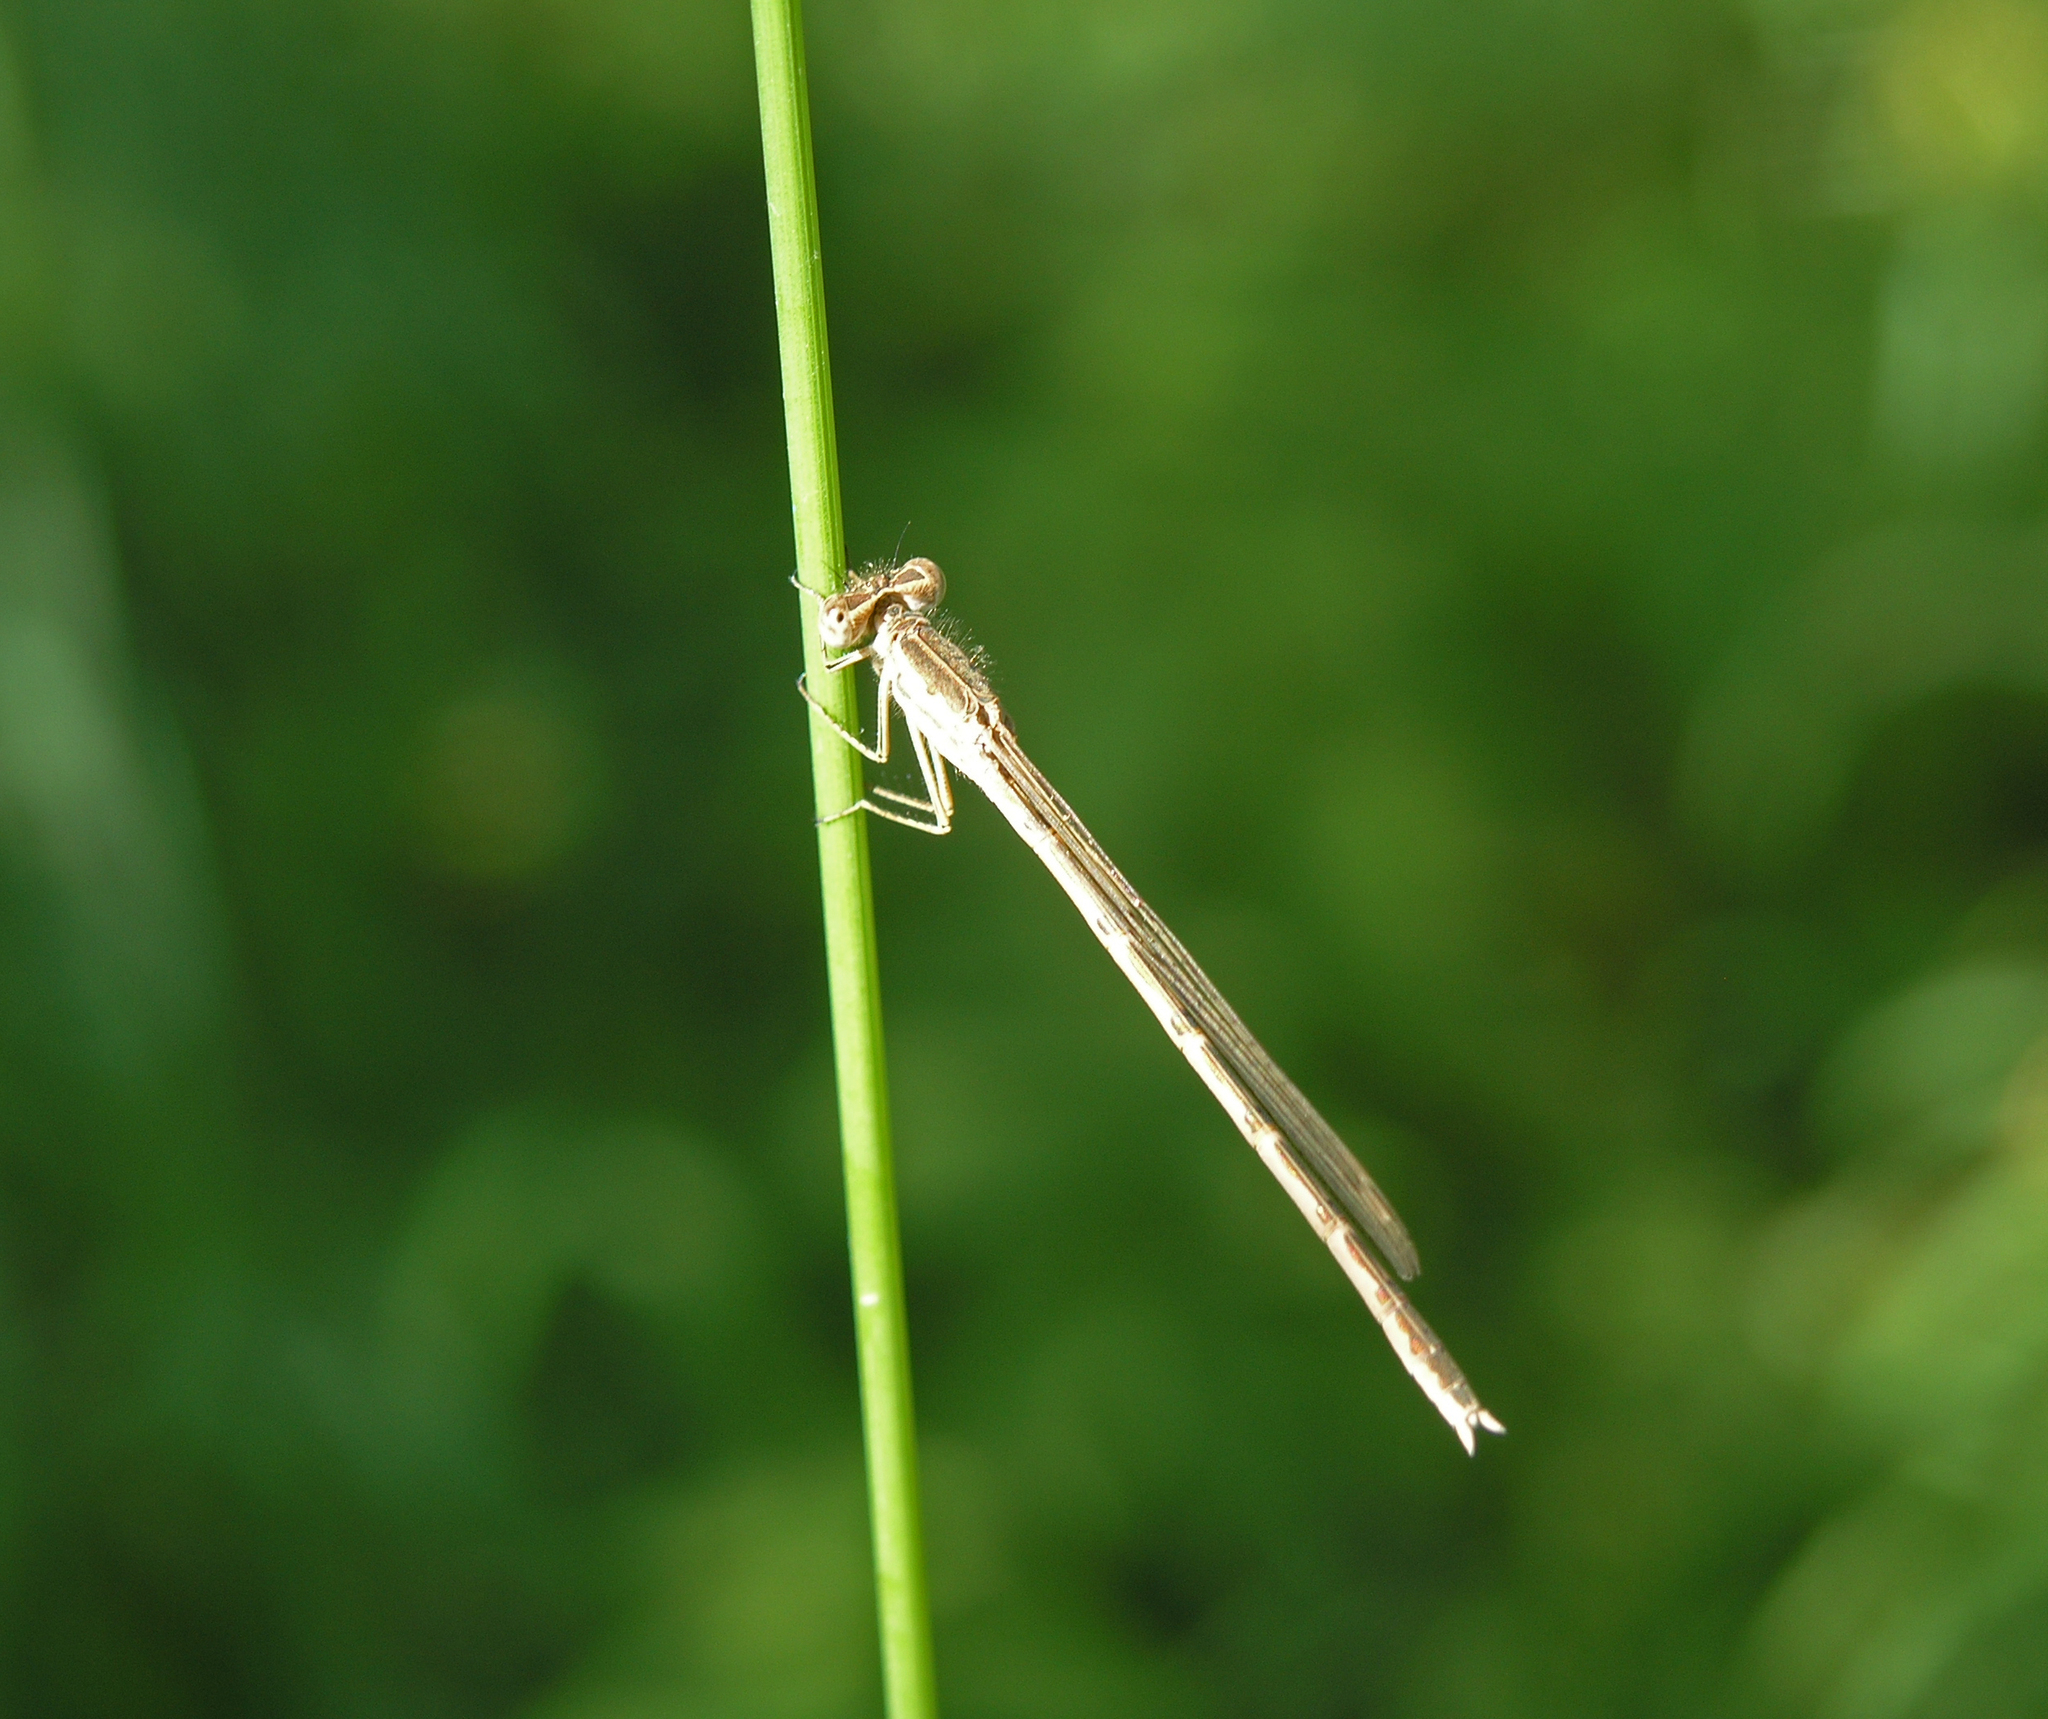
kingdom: Animalia
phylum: Arthropoda
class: Insecta
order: Odonata
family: Lestidae
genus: Sympecma
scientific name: Sympecma paedisca
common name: Siberian winter damsel
